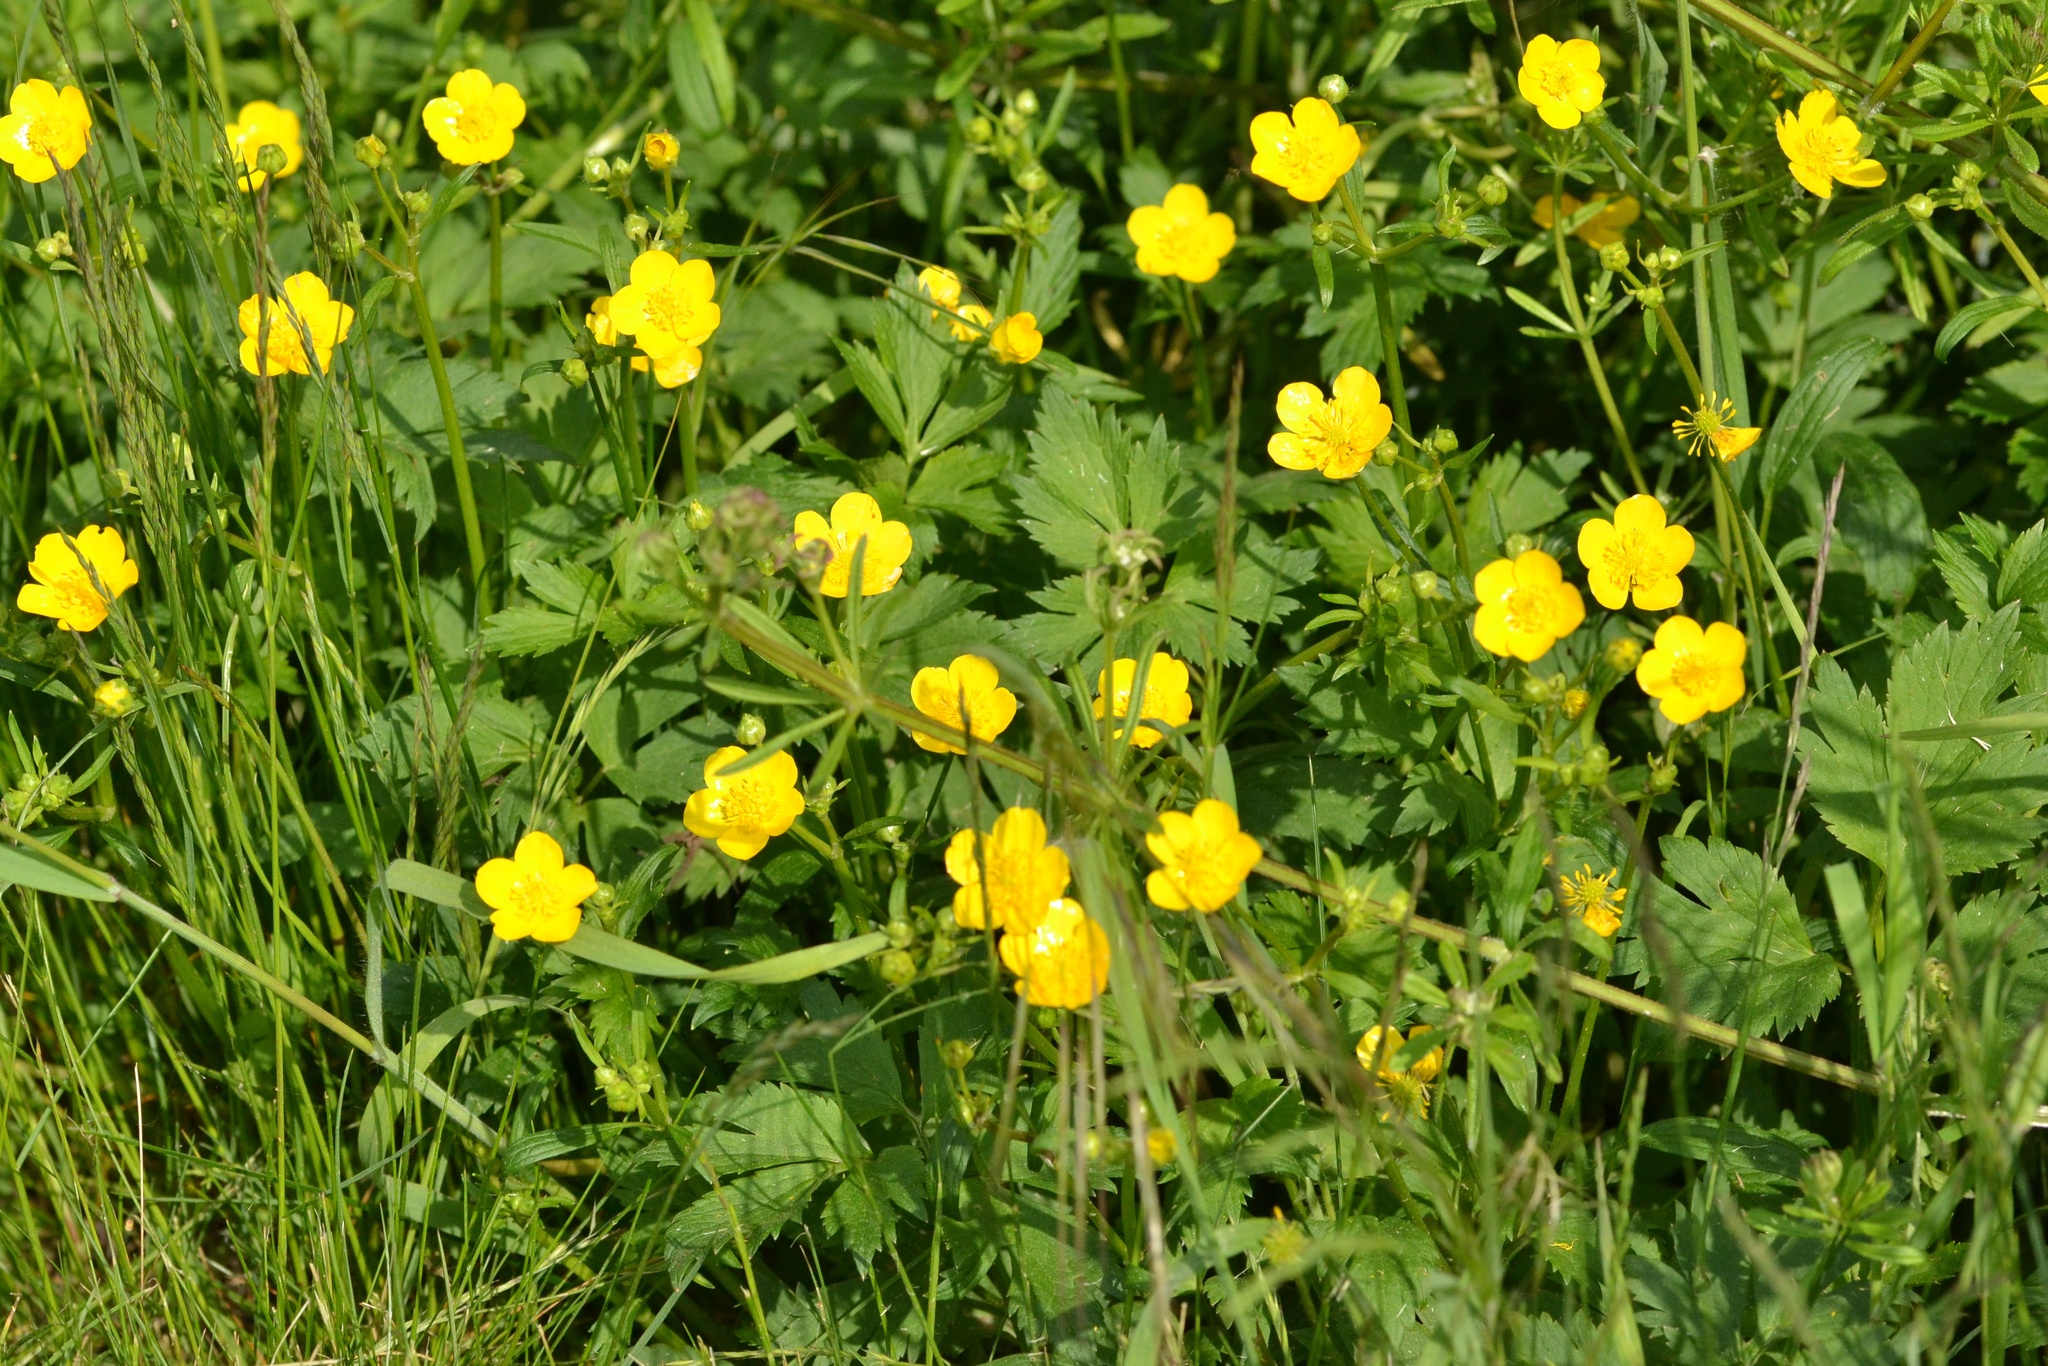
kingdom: Plantae
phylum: Tracheophyta
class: Magnoliopsida
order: Ranunculales
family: Ranunculaceae
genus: Ranunculus
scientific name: Ranunculus repens
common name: Creeping buttercup
